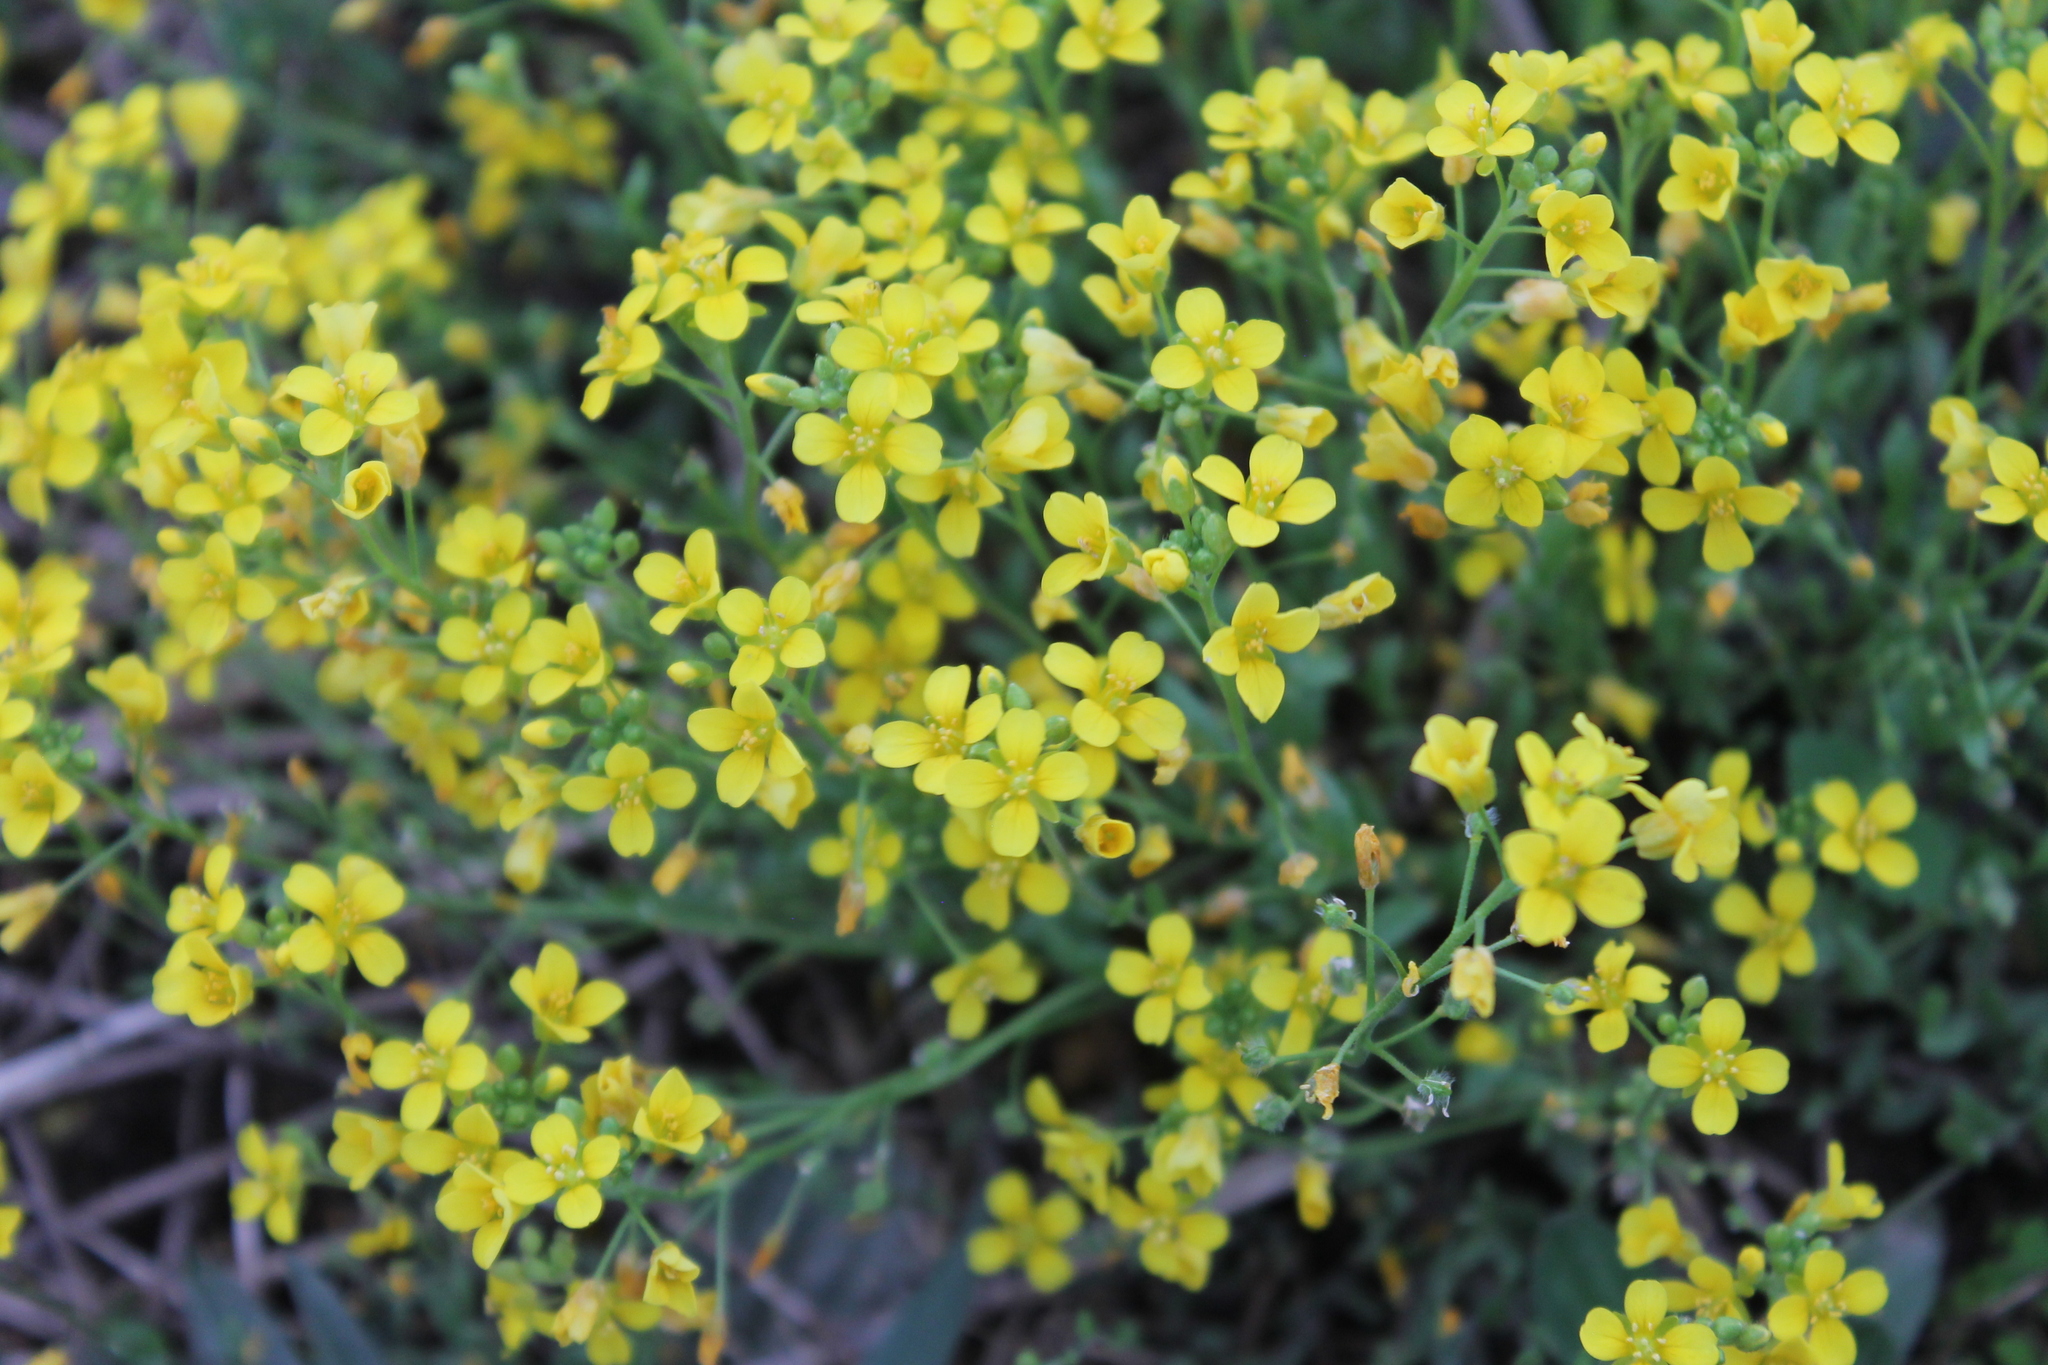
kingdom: Plantae
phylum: Tracheophyta
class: Magnoliopsida
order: Brassicales
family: Brassicaceae
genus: Paysonia
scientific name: Paysonia lescurii
